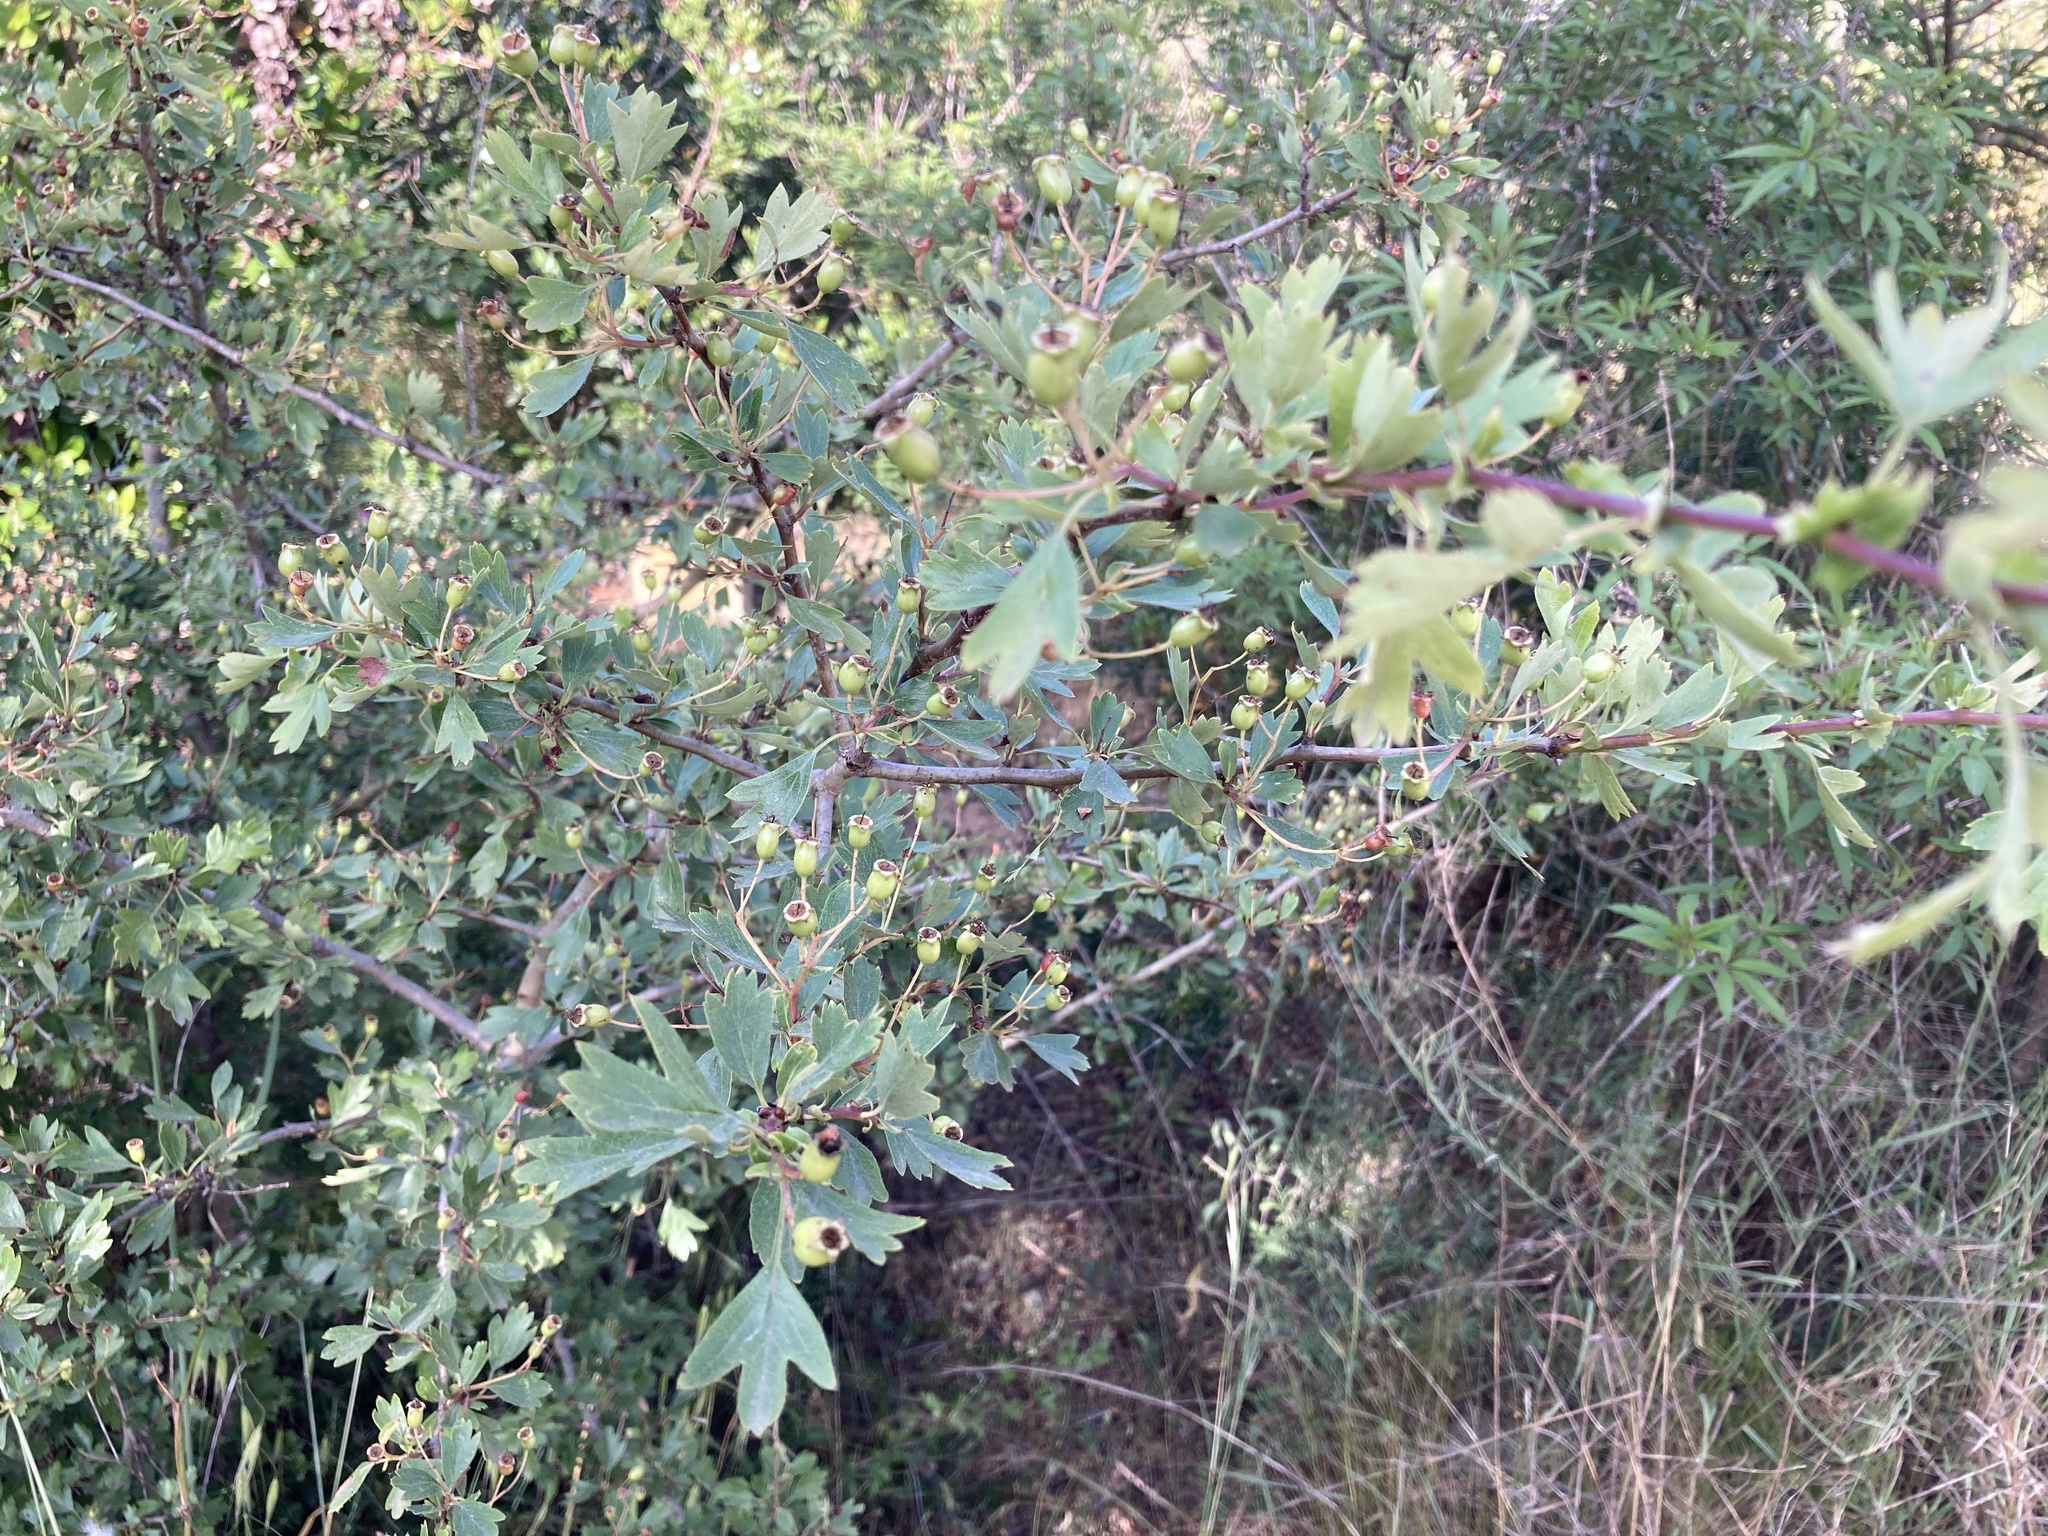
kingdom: Plantae
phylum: Tracheophyta
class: Magnoliopsida
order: Rosales
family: Rosaceae
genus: Crataegus
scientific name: Crataegus monogyna
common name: Hawthorn
